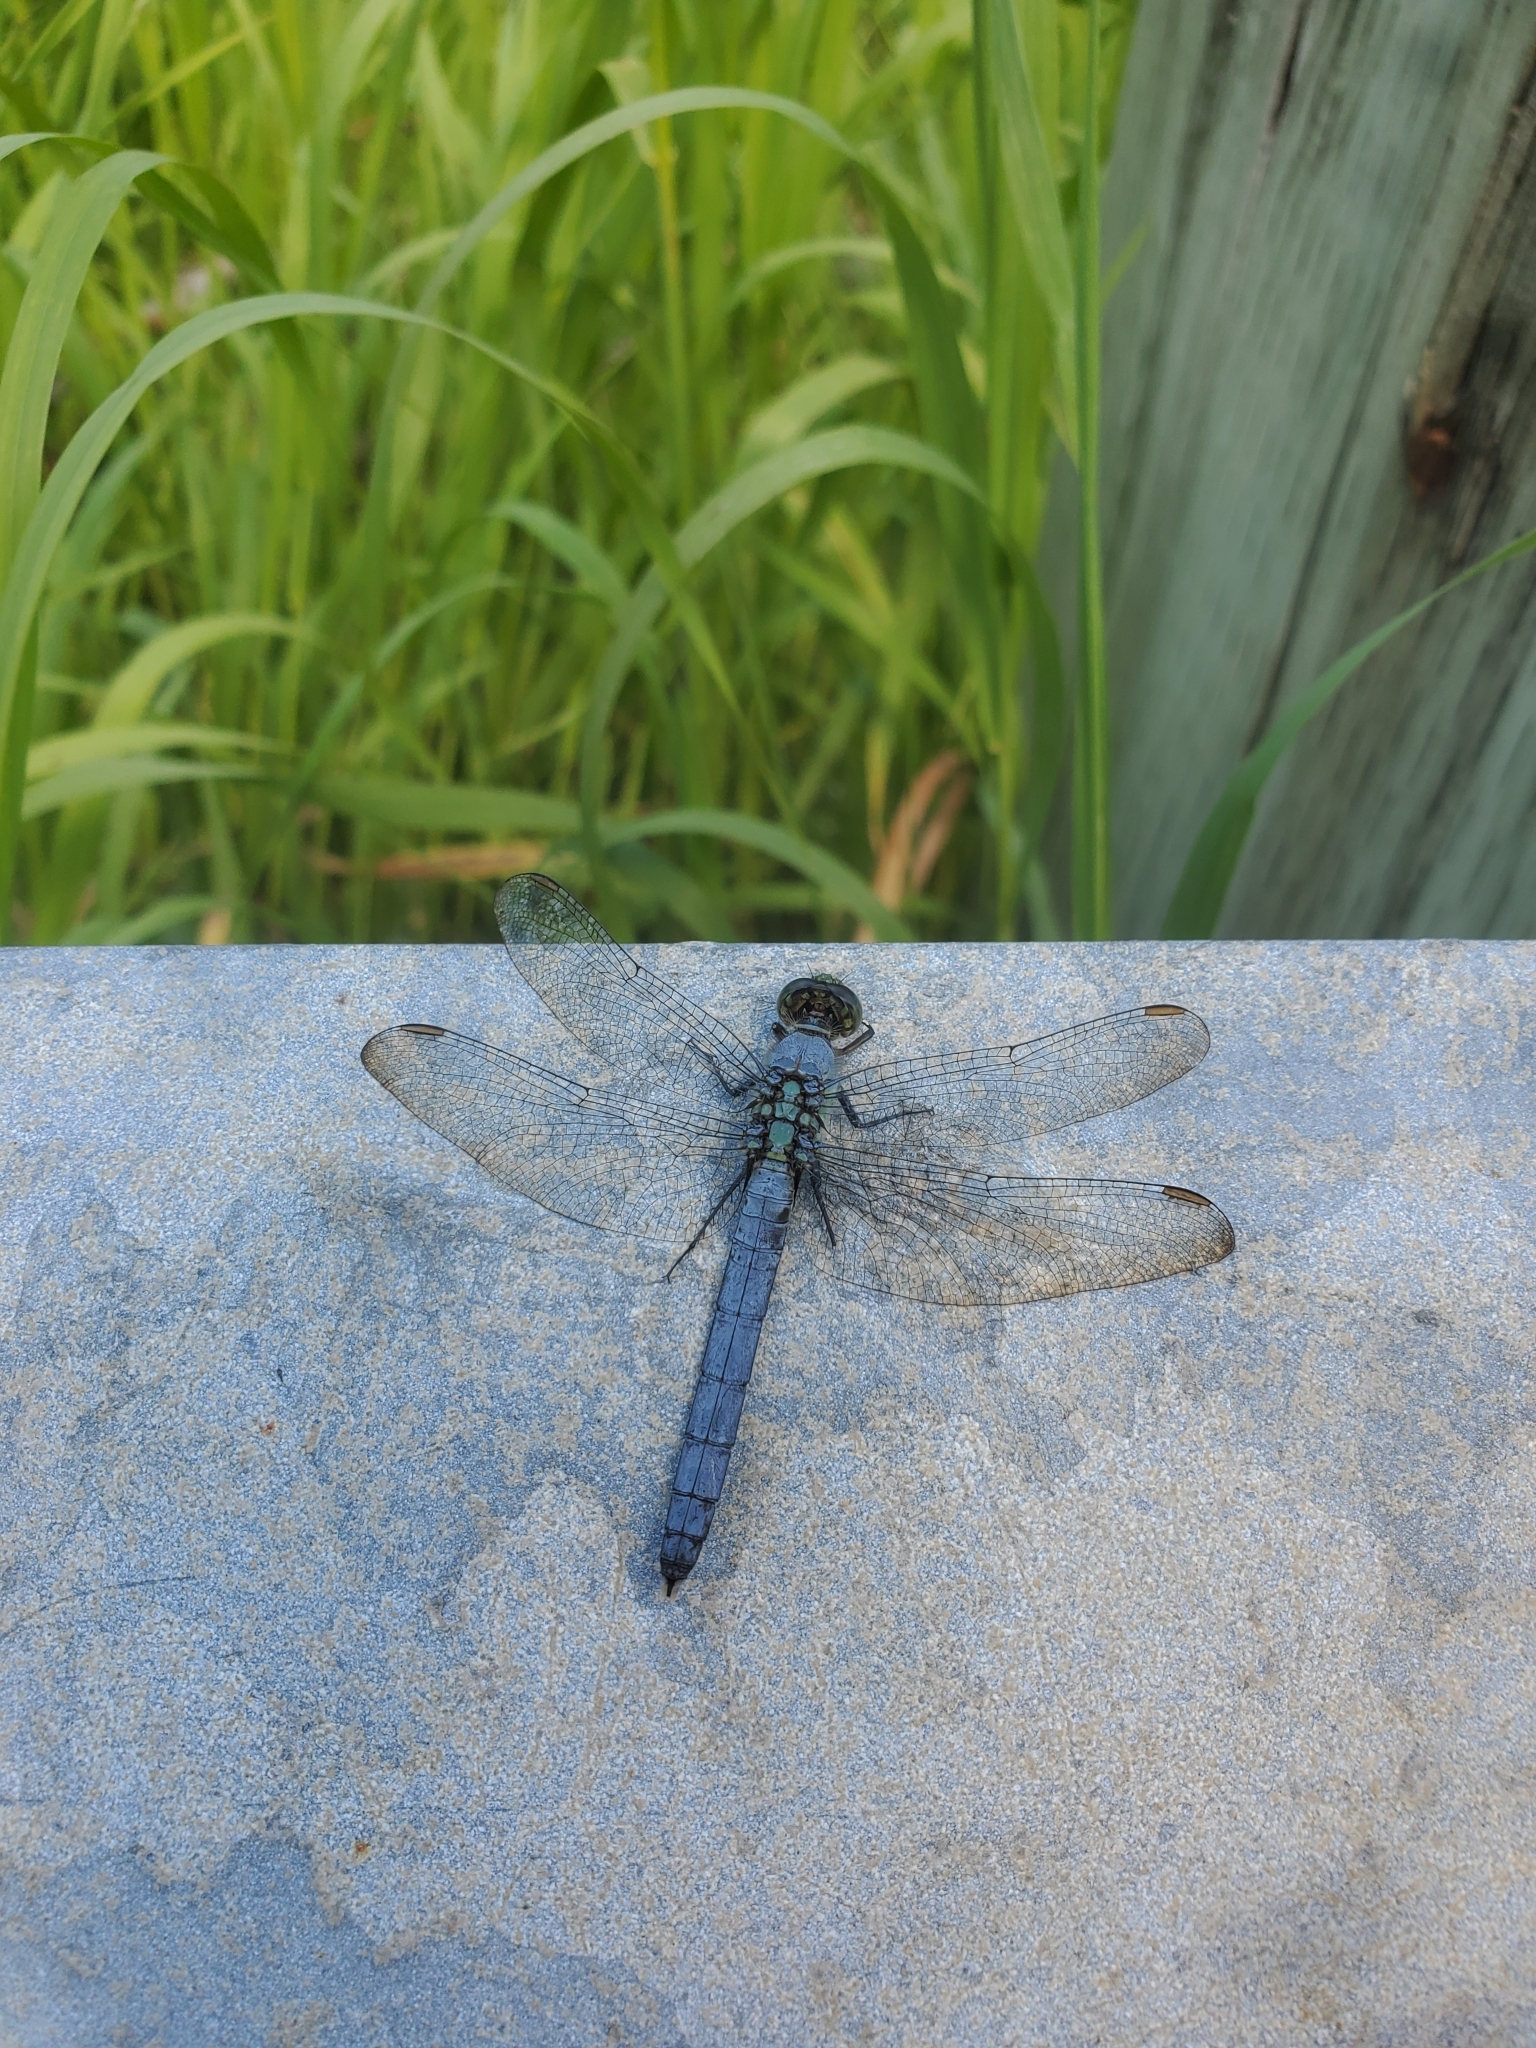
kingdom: Animalia
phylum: Arthropoda
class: Insecta
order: Odonata
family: Libellulidae
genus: Erythemis
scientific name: Erythemis simplicicollis
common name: Eastern pondhawk
